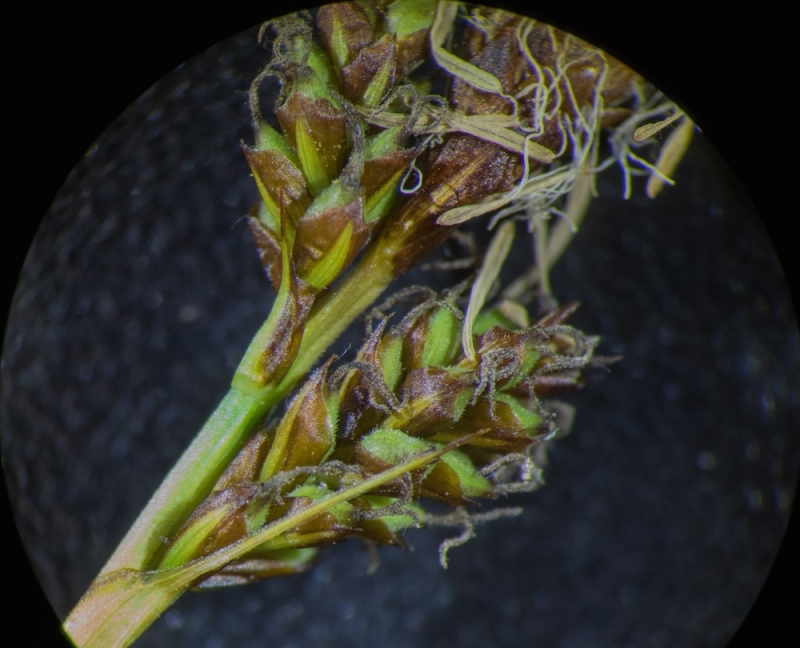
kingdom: Plantae
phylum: Tracheophyta
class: Liliopsida
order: Poales
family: Cyperaceae
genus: Carex
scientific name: Carex caryophyllea
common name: Spring sedge
